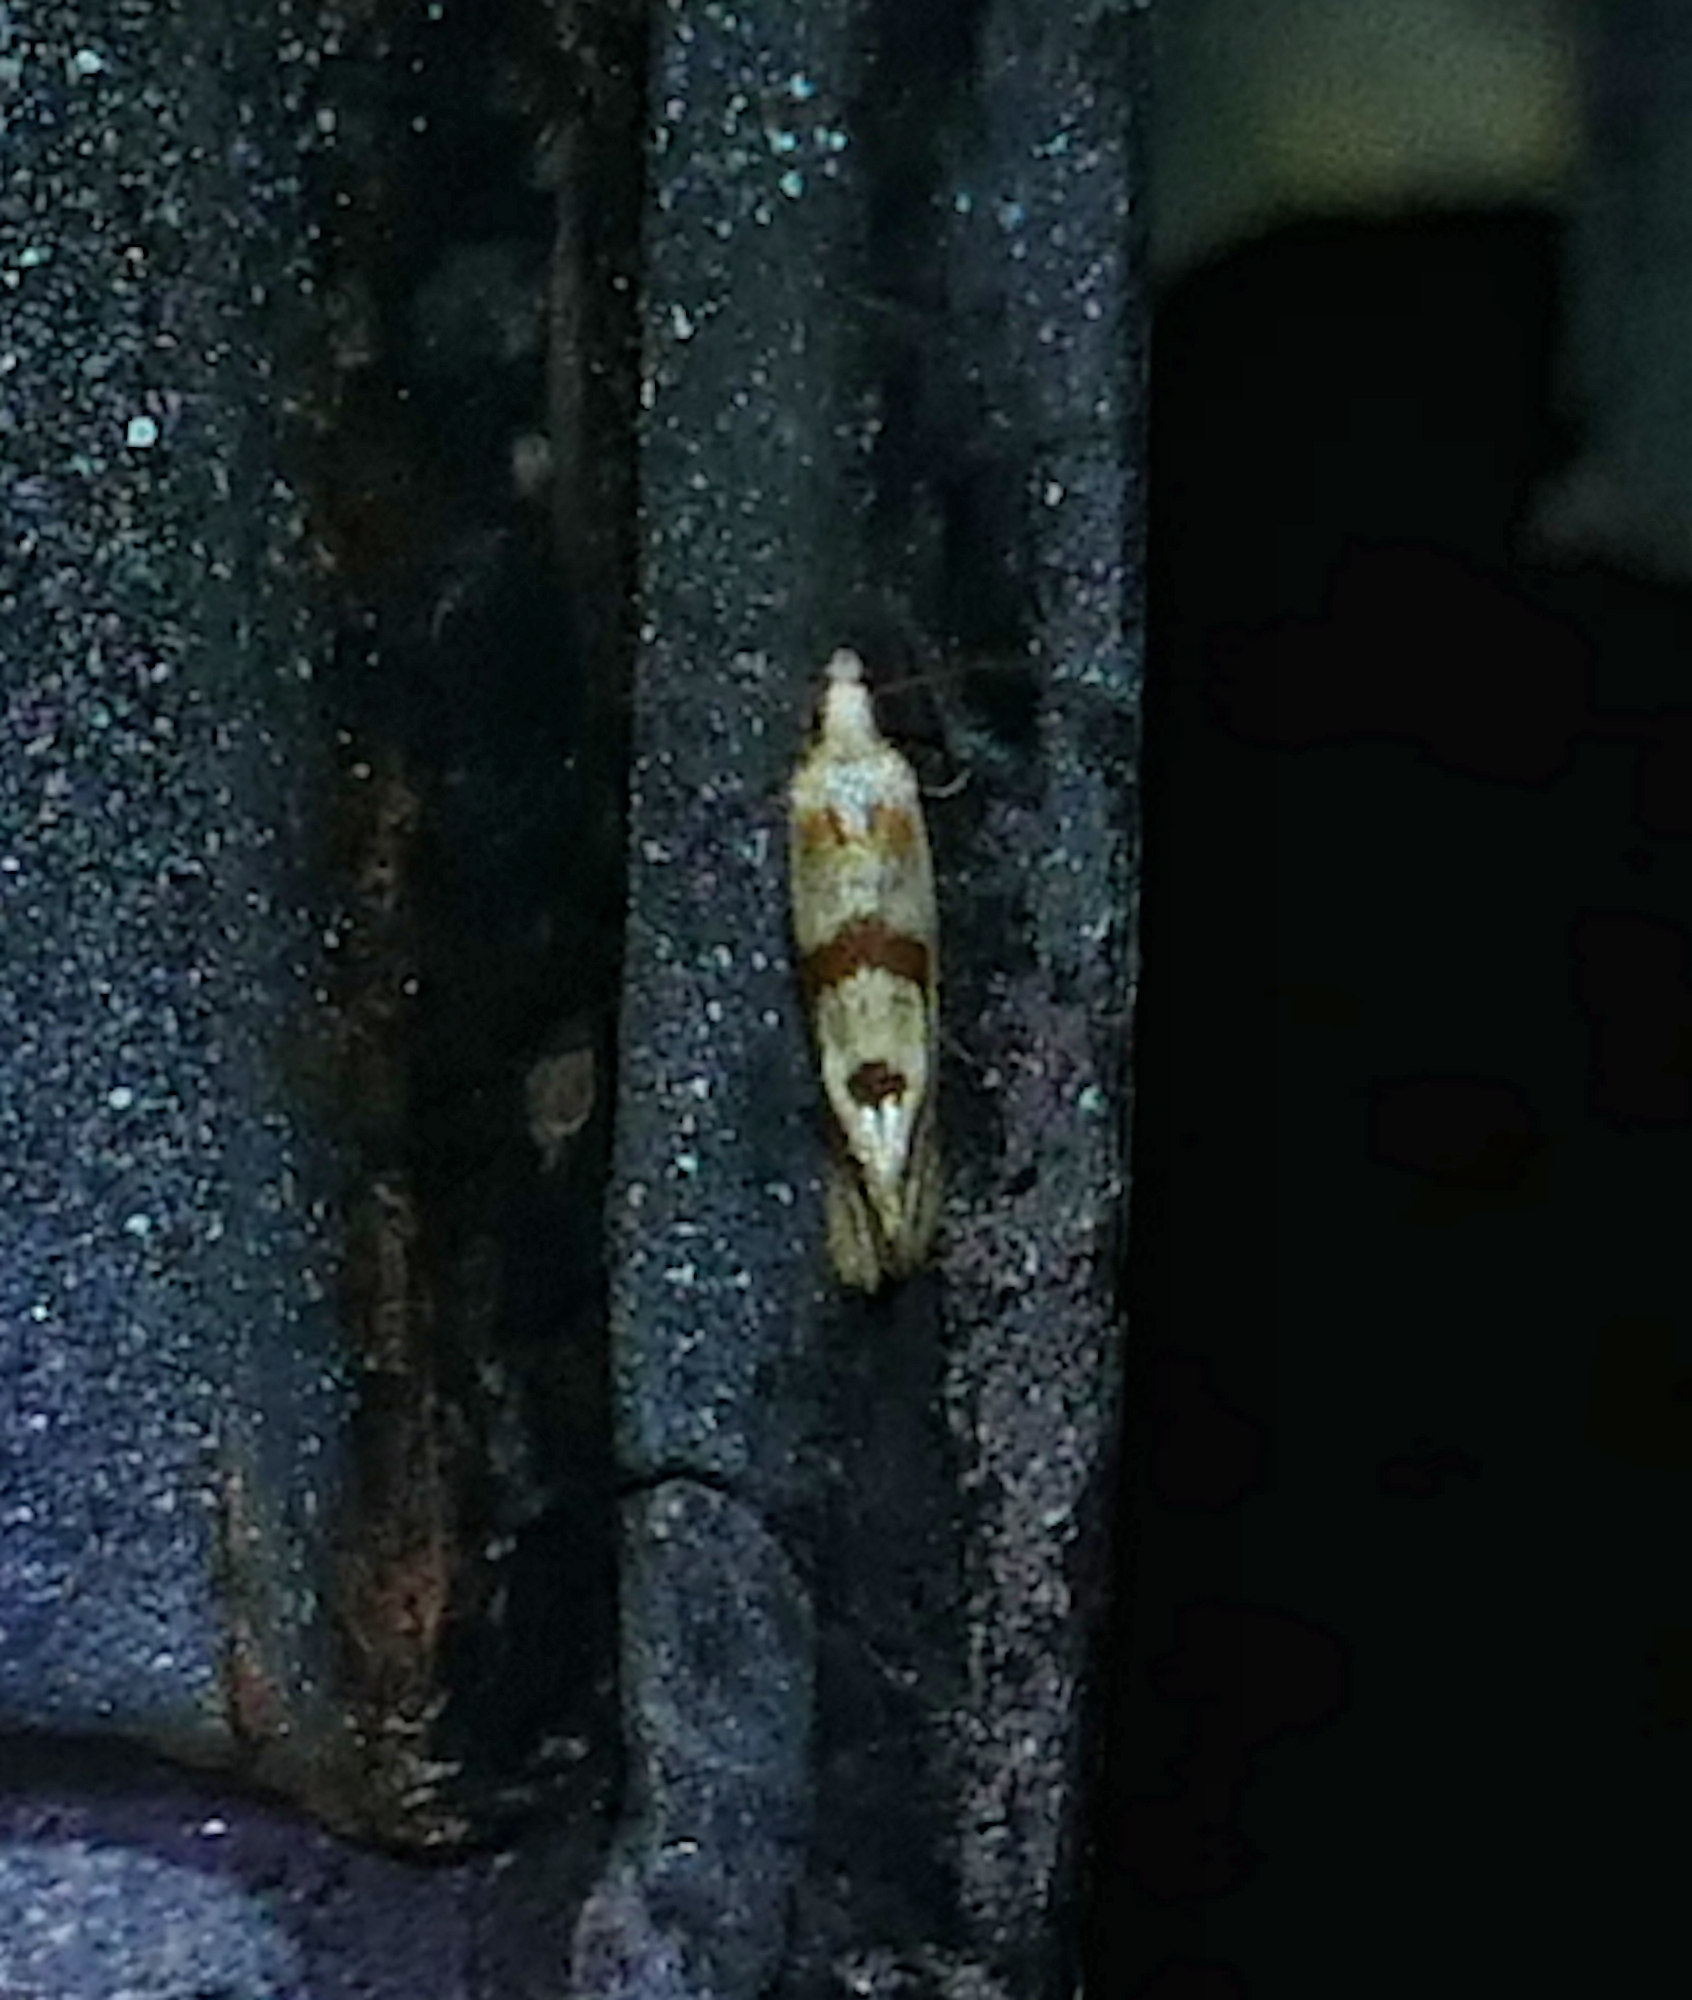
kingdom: Animalia
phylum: Arthropoda
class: Insecta
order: Lepidoptera
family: Tortricidae
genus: Aethes
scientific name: Aethes smeathmanniana
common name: Yarrow conch
